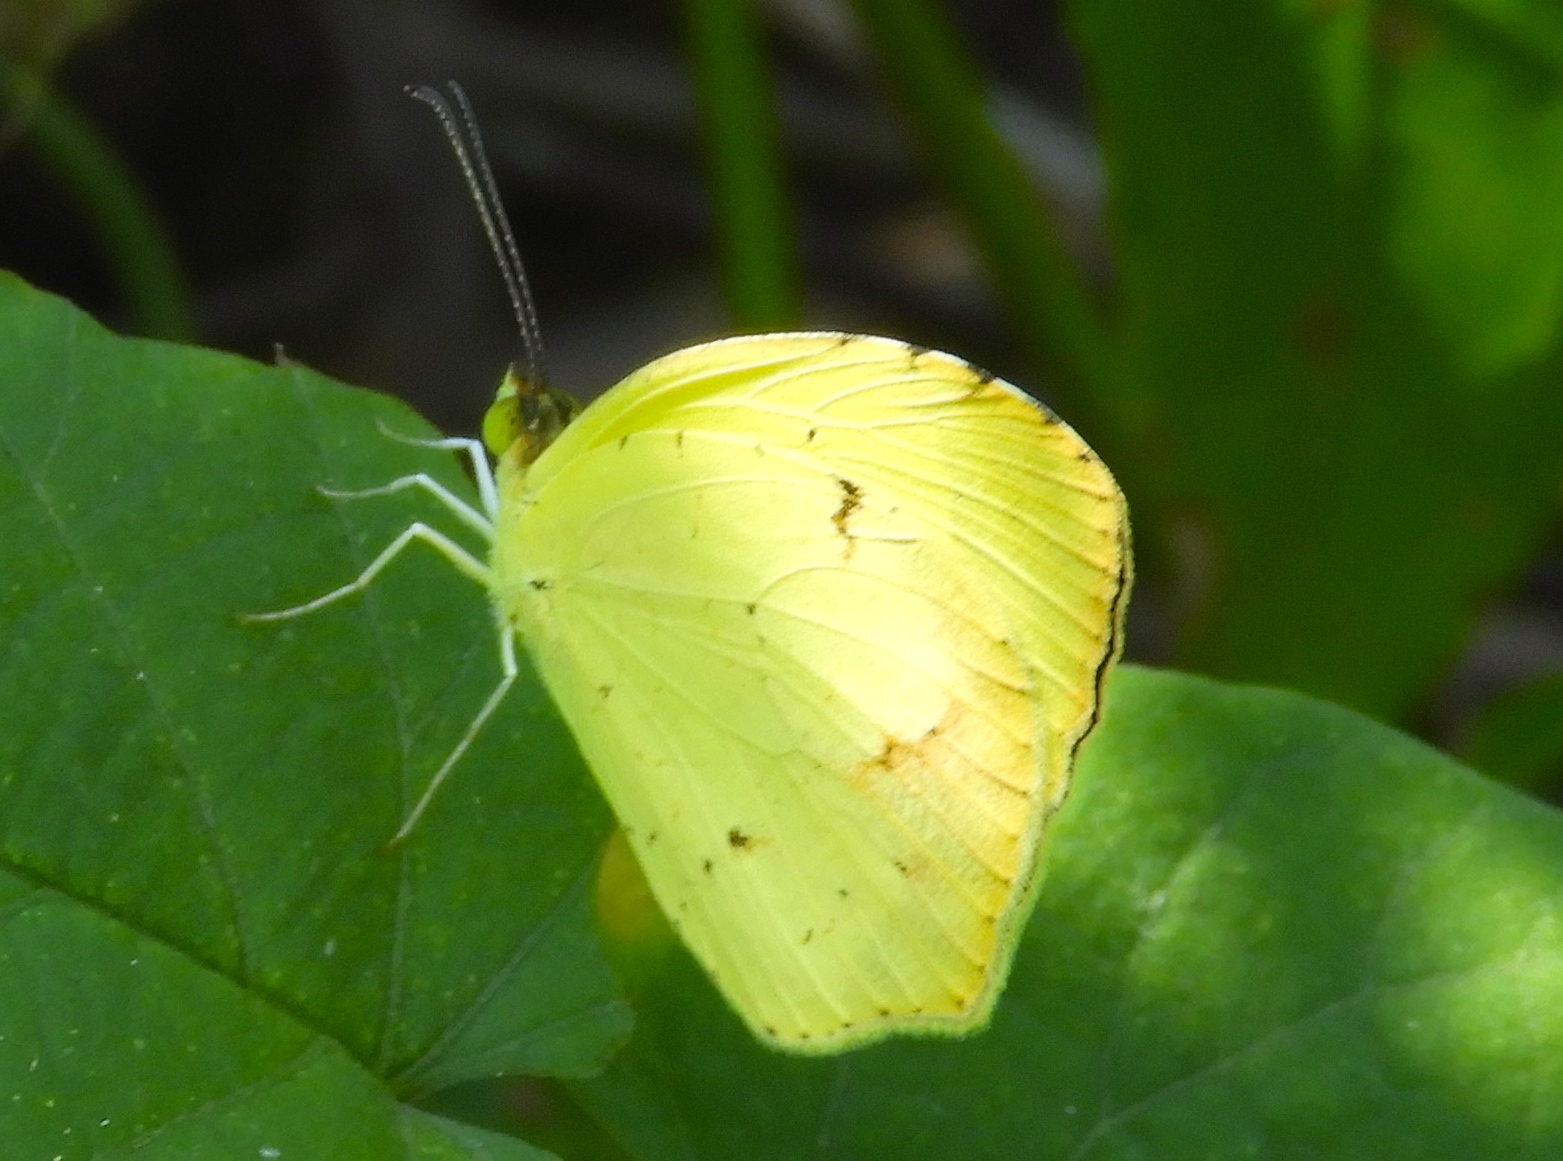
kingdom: Animalia
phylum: Arthropoda
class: Insecta
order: Lepidoptera
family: Pieridae
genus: Abaeis
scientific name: Abaeis boisduvaliana
